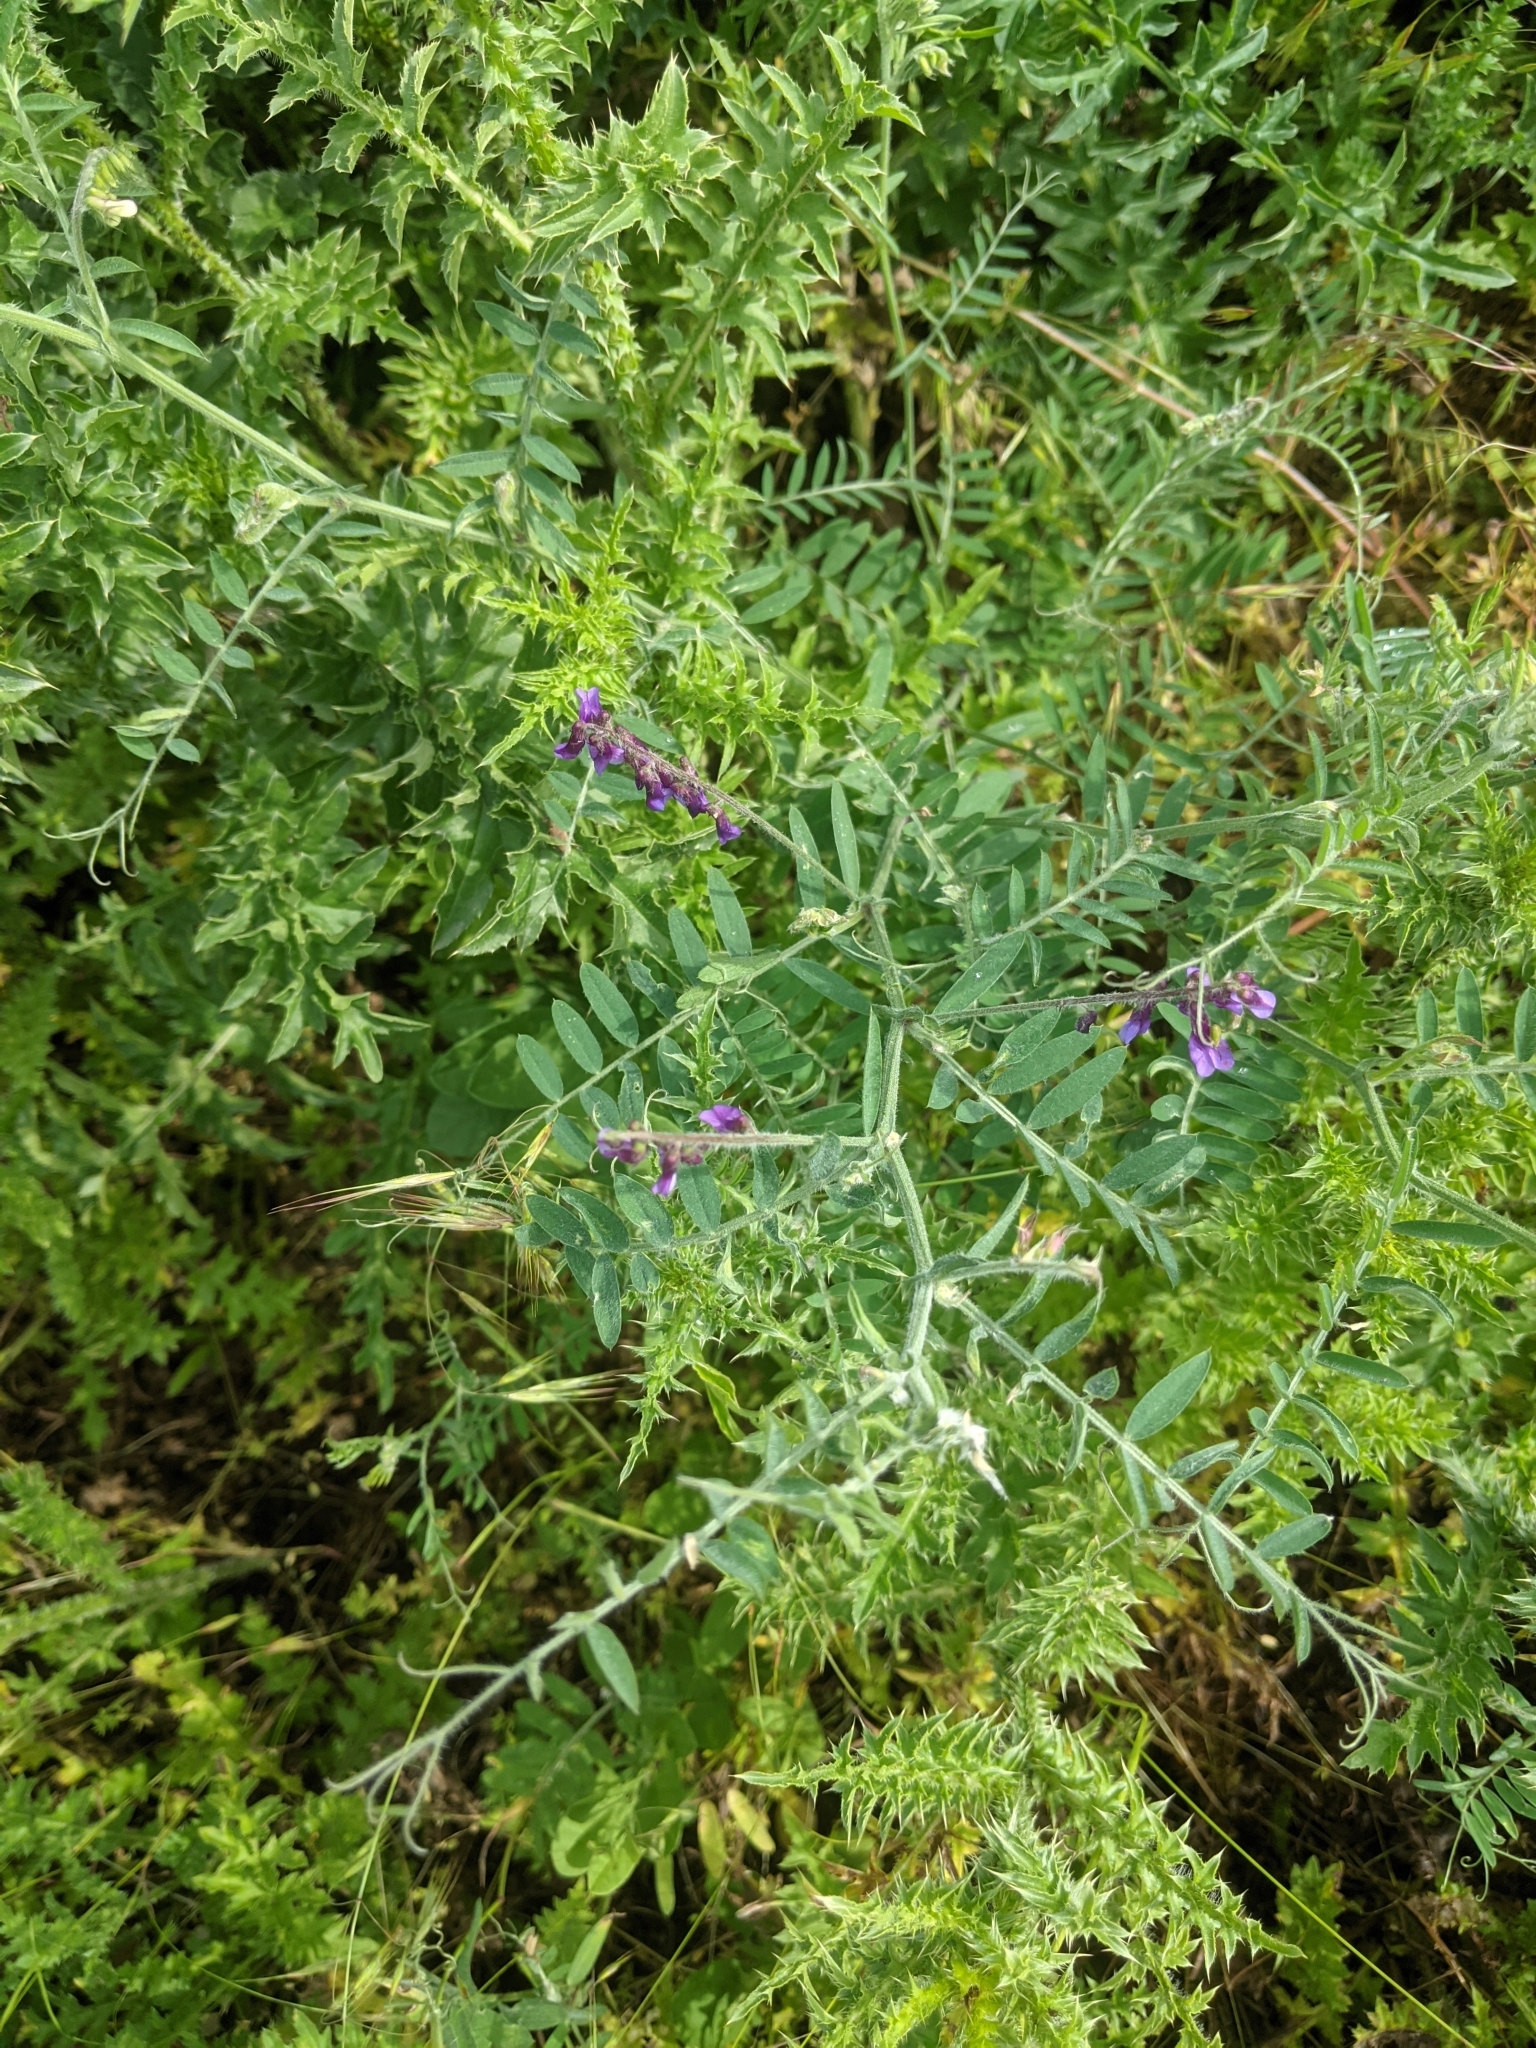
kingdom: Plantae
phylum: Tracheophyta
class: Magnoliopsida
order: Fabales
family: Fabaceae
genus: Vicia
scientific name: Vicia villosa
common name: Fodder vetch
